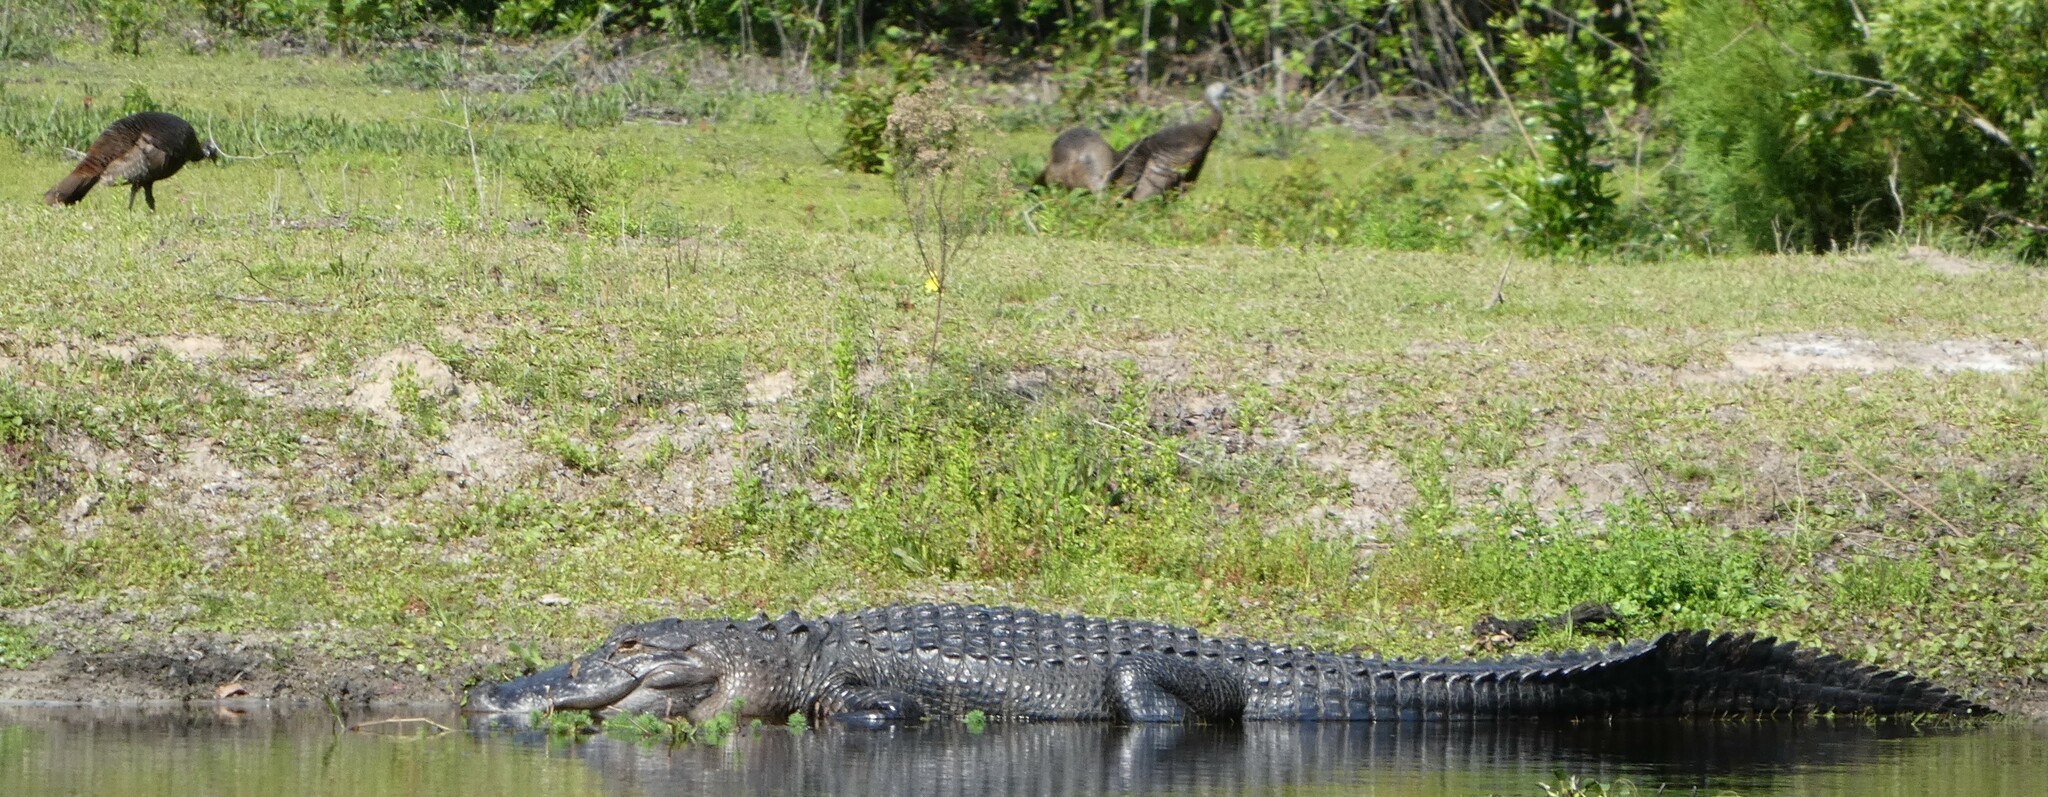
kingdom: Animalia
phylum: Chordata
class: Aves
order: Galliformes
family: Phasianidae
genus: Meleagris
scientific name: Meleagris gallopavo
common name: Wild turkey
